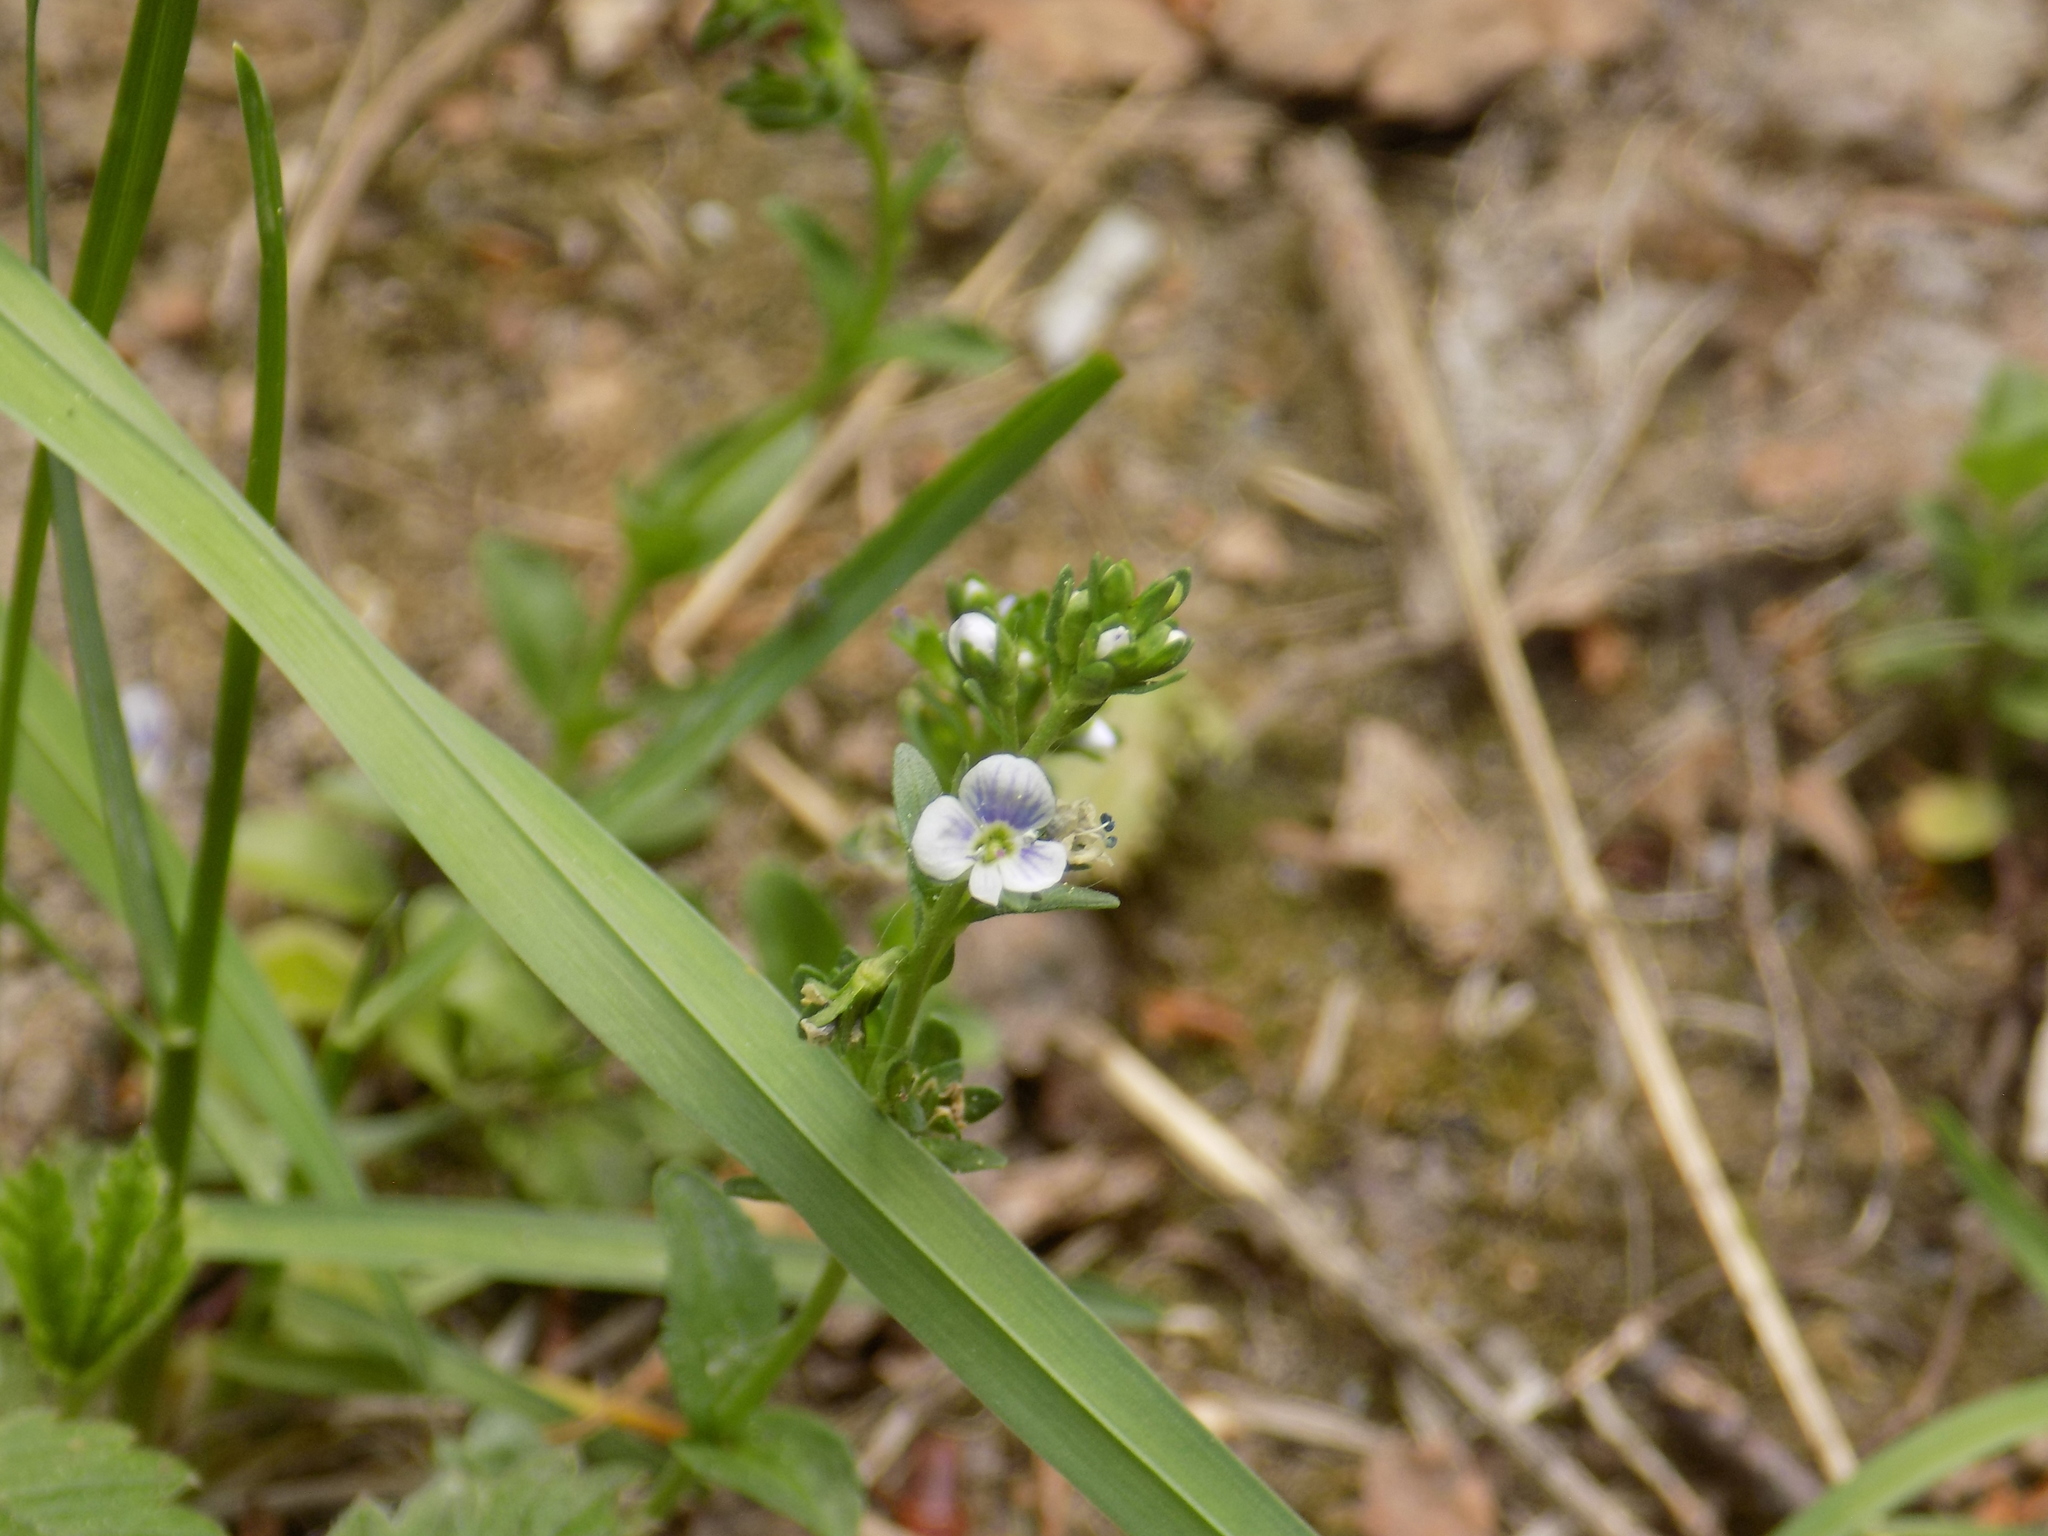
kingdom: Plantae
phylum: Tracheophyta
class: Magnoliopsida
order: Lamiales
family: Plantaginaceae
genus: Veronica
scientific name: Veronica serpyllifolia
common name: Thyme-leaved speedwell
